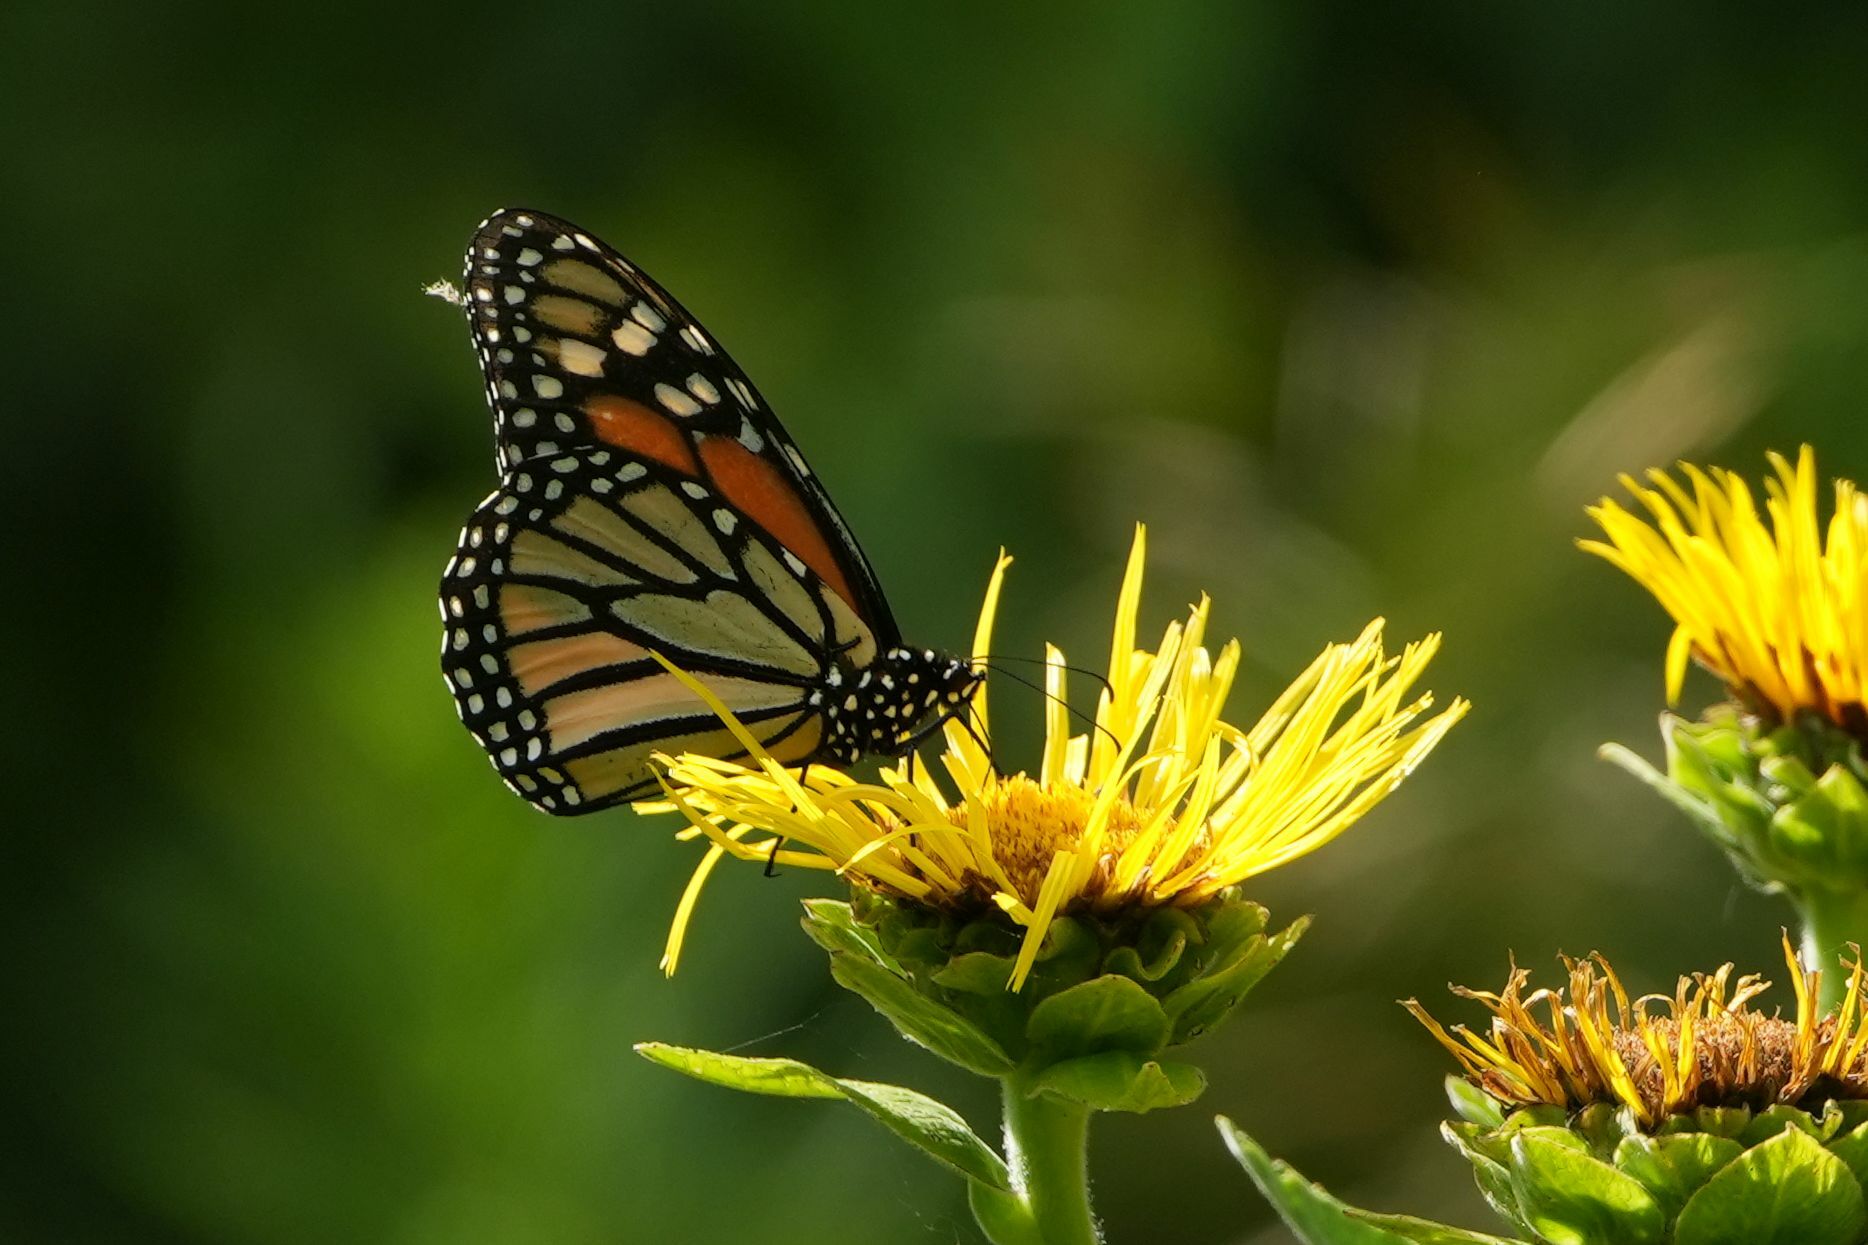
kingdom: Animalia
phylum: Arthropoda
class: Insecta
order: Lepidoptera
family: Nymphalidae
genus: Danaus
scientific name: Danaus plexippus
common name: Monarch
